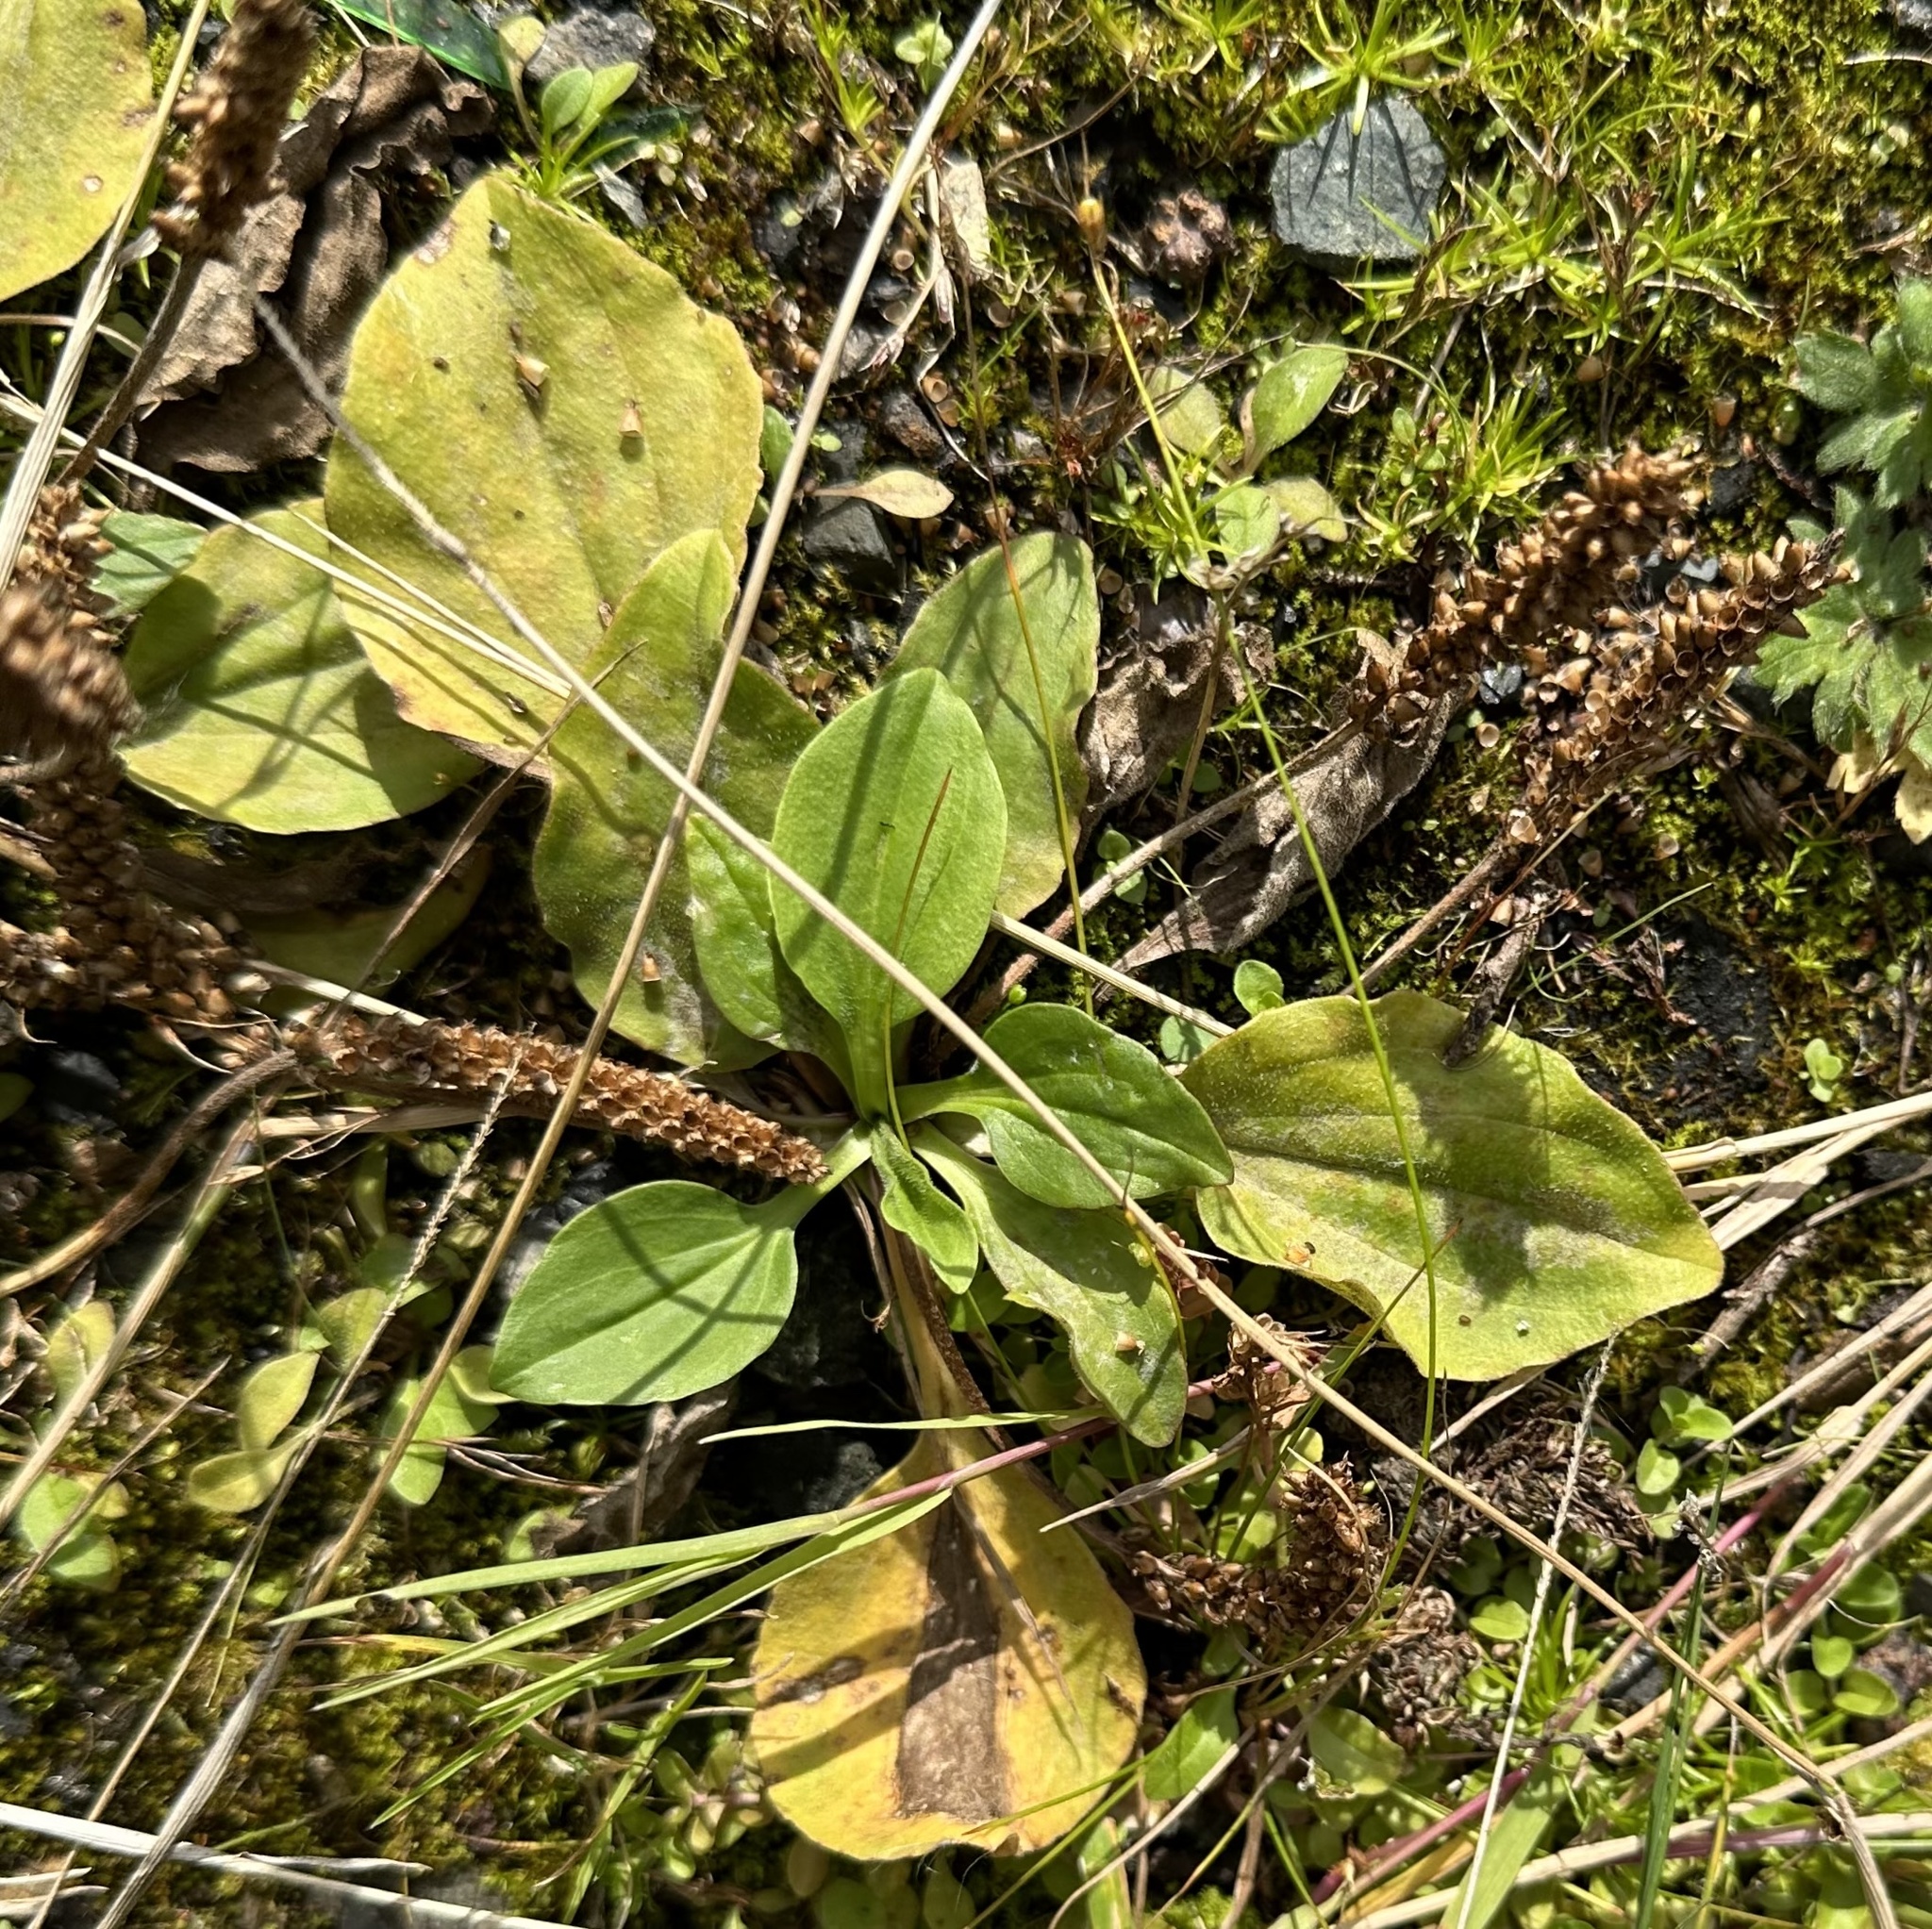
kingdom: Plantae
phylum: Tracheophyta
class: Magnoliopsida
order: Lamiales
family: Plantaginaceae
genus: Plantago
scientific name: Plantago major
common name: Common plantain
